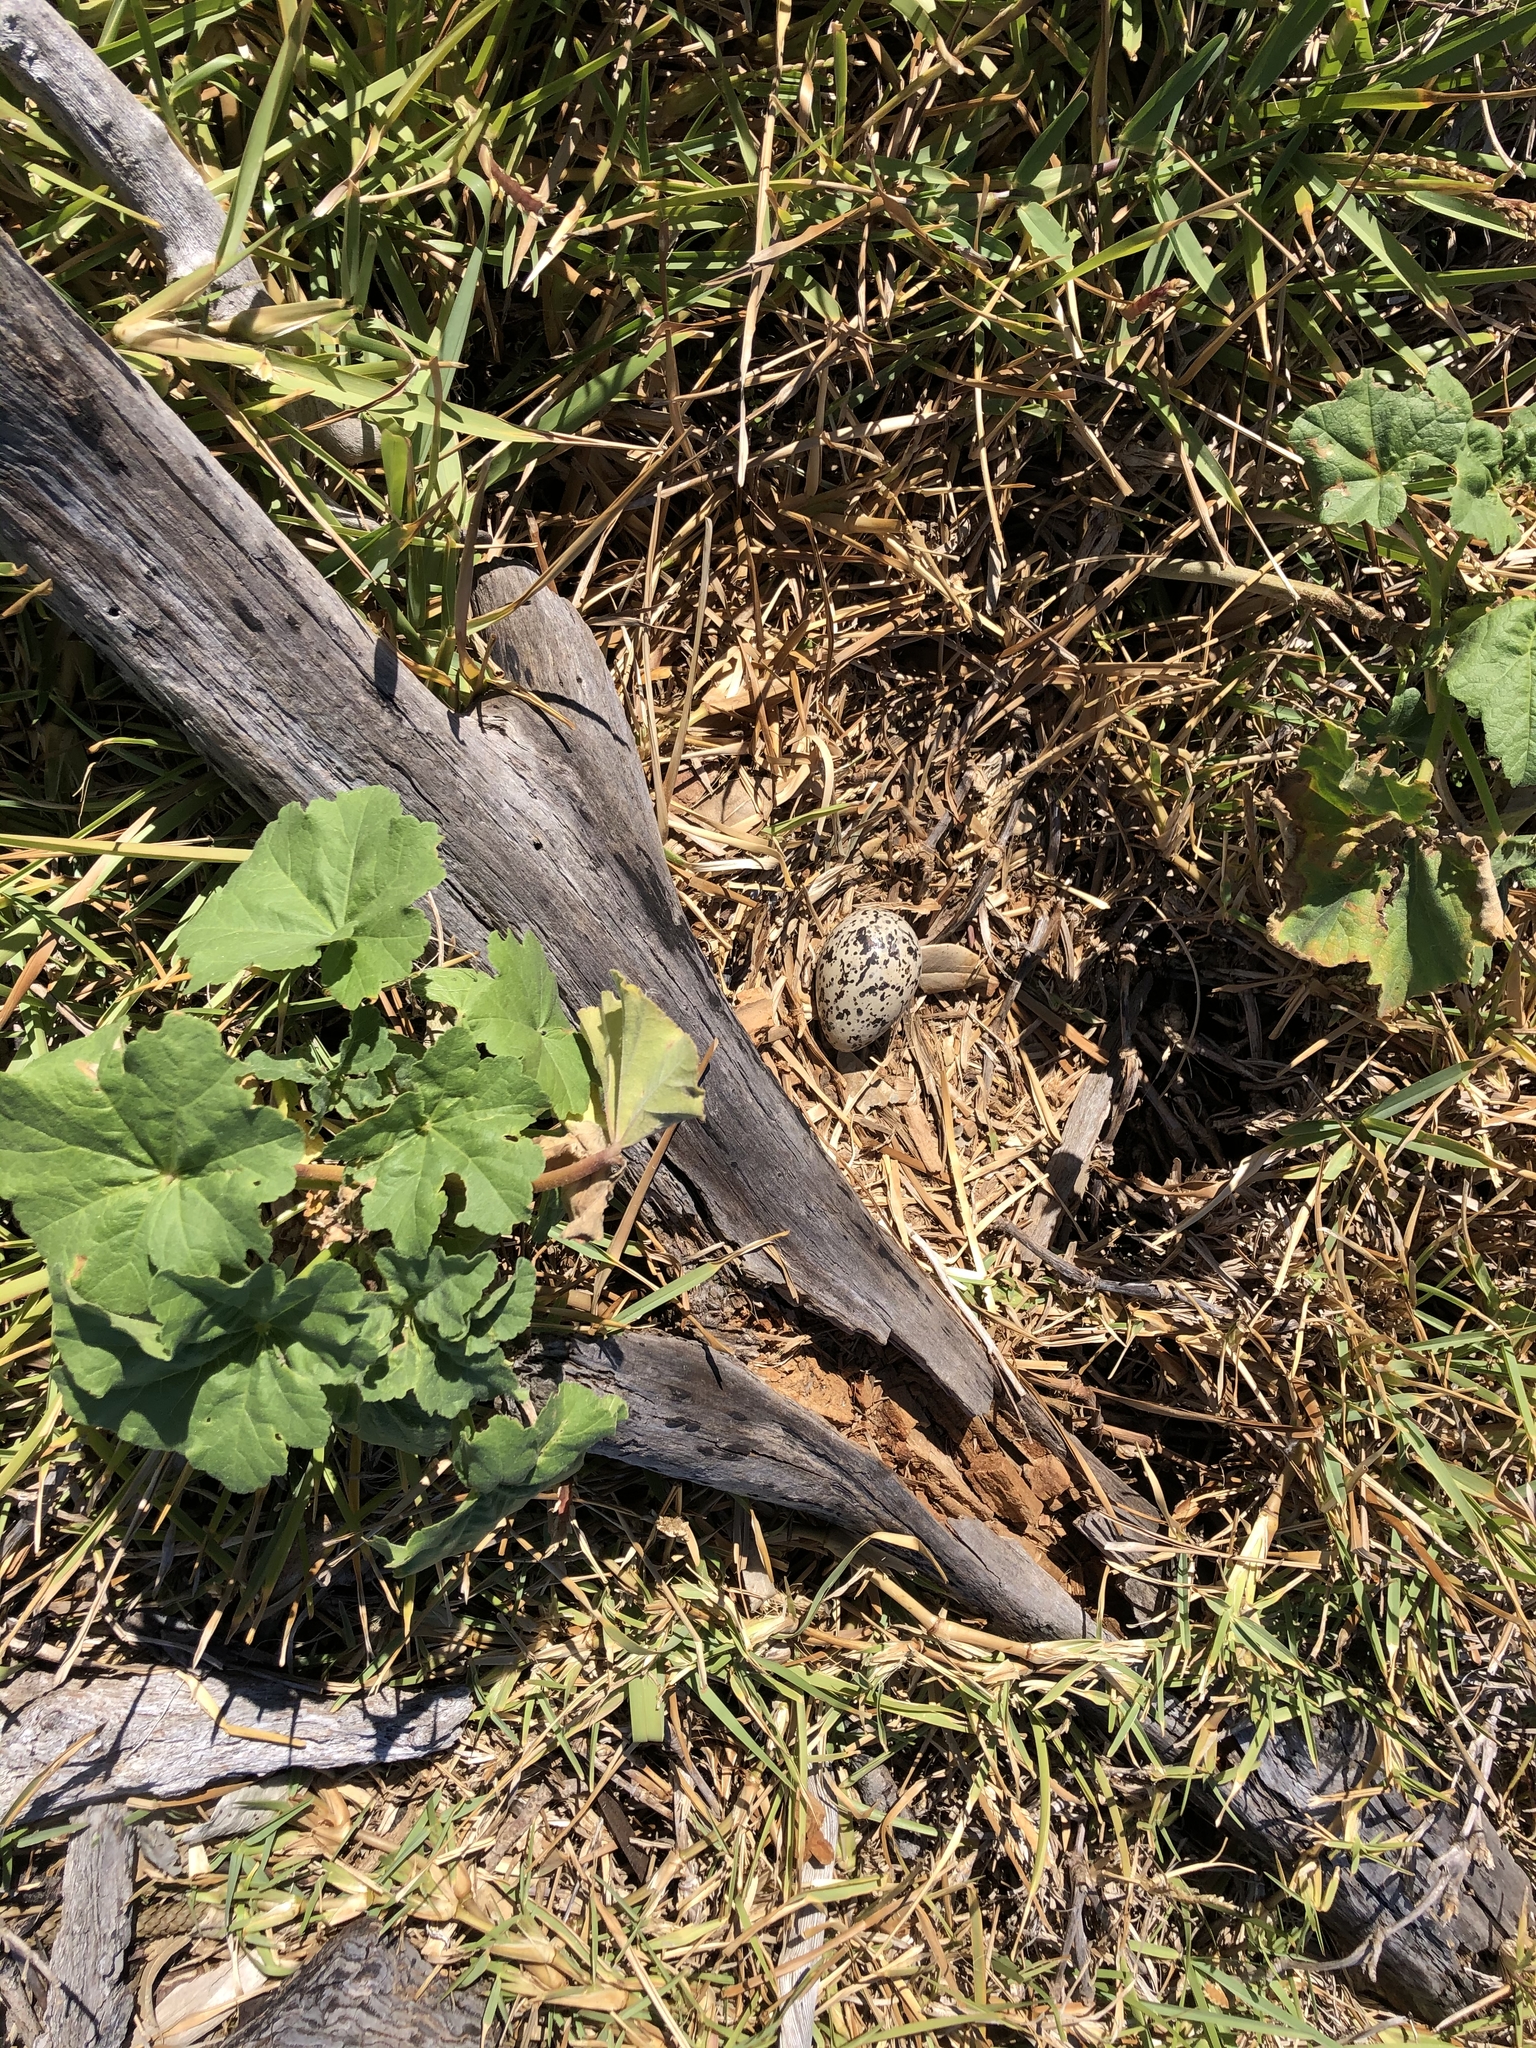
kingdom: Animalia
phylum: Chordata
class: Aves
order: Charadriiformes
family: Haematopodidae
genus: Haematopus
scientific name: Haematopus unicolor
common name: Variable oystercatcher
